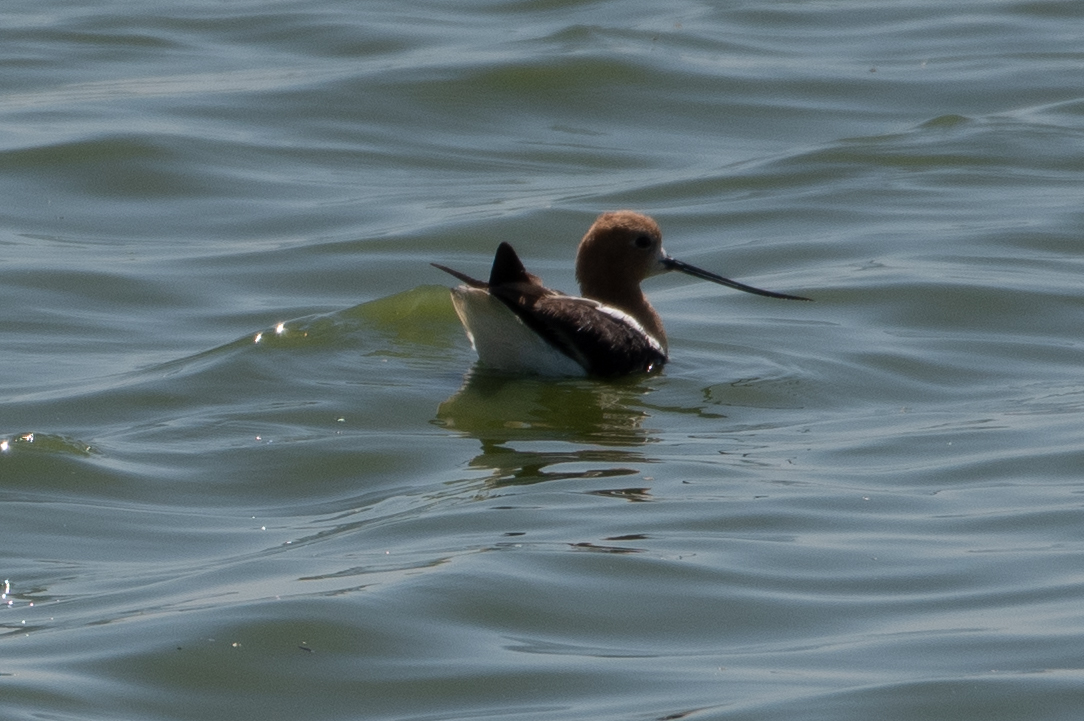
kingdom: Animalia
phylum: Chordata
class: Aves
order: Charadriiformes
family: Recurvirostridae
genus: Recurvirostra
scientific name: Recurvirostra americana
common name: American avocet
